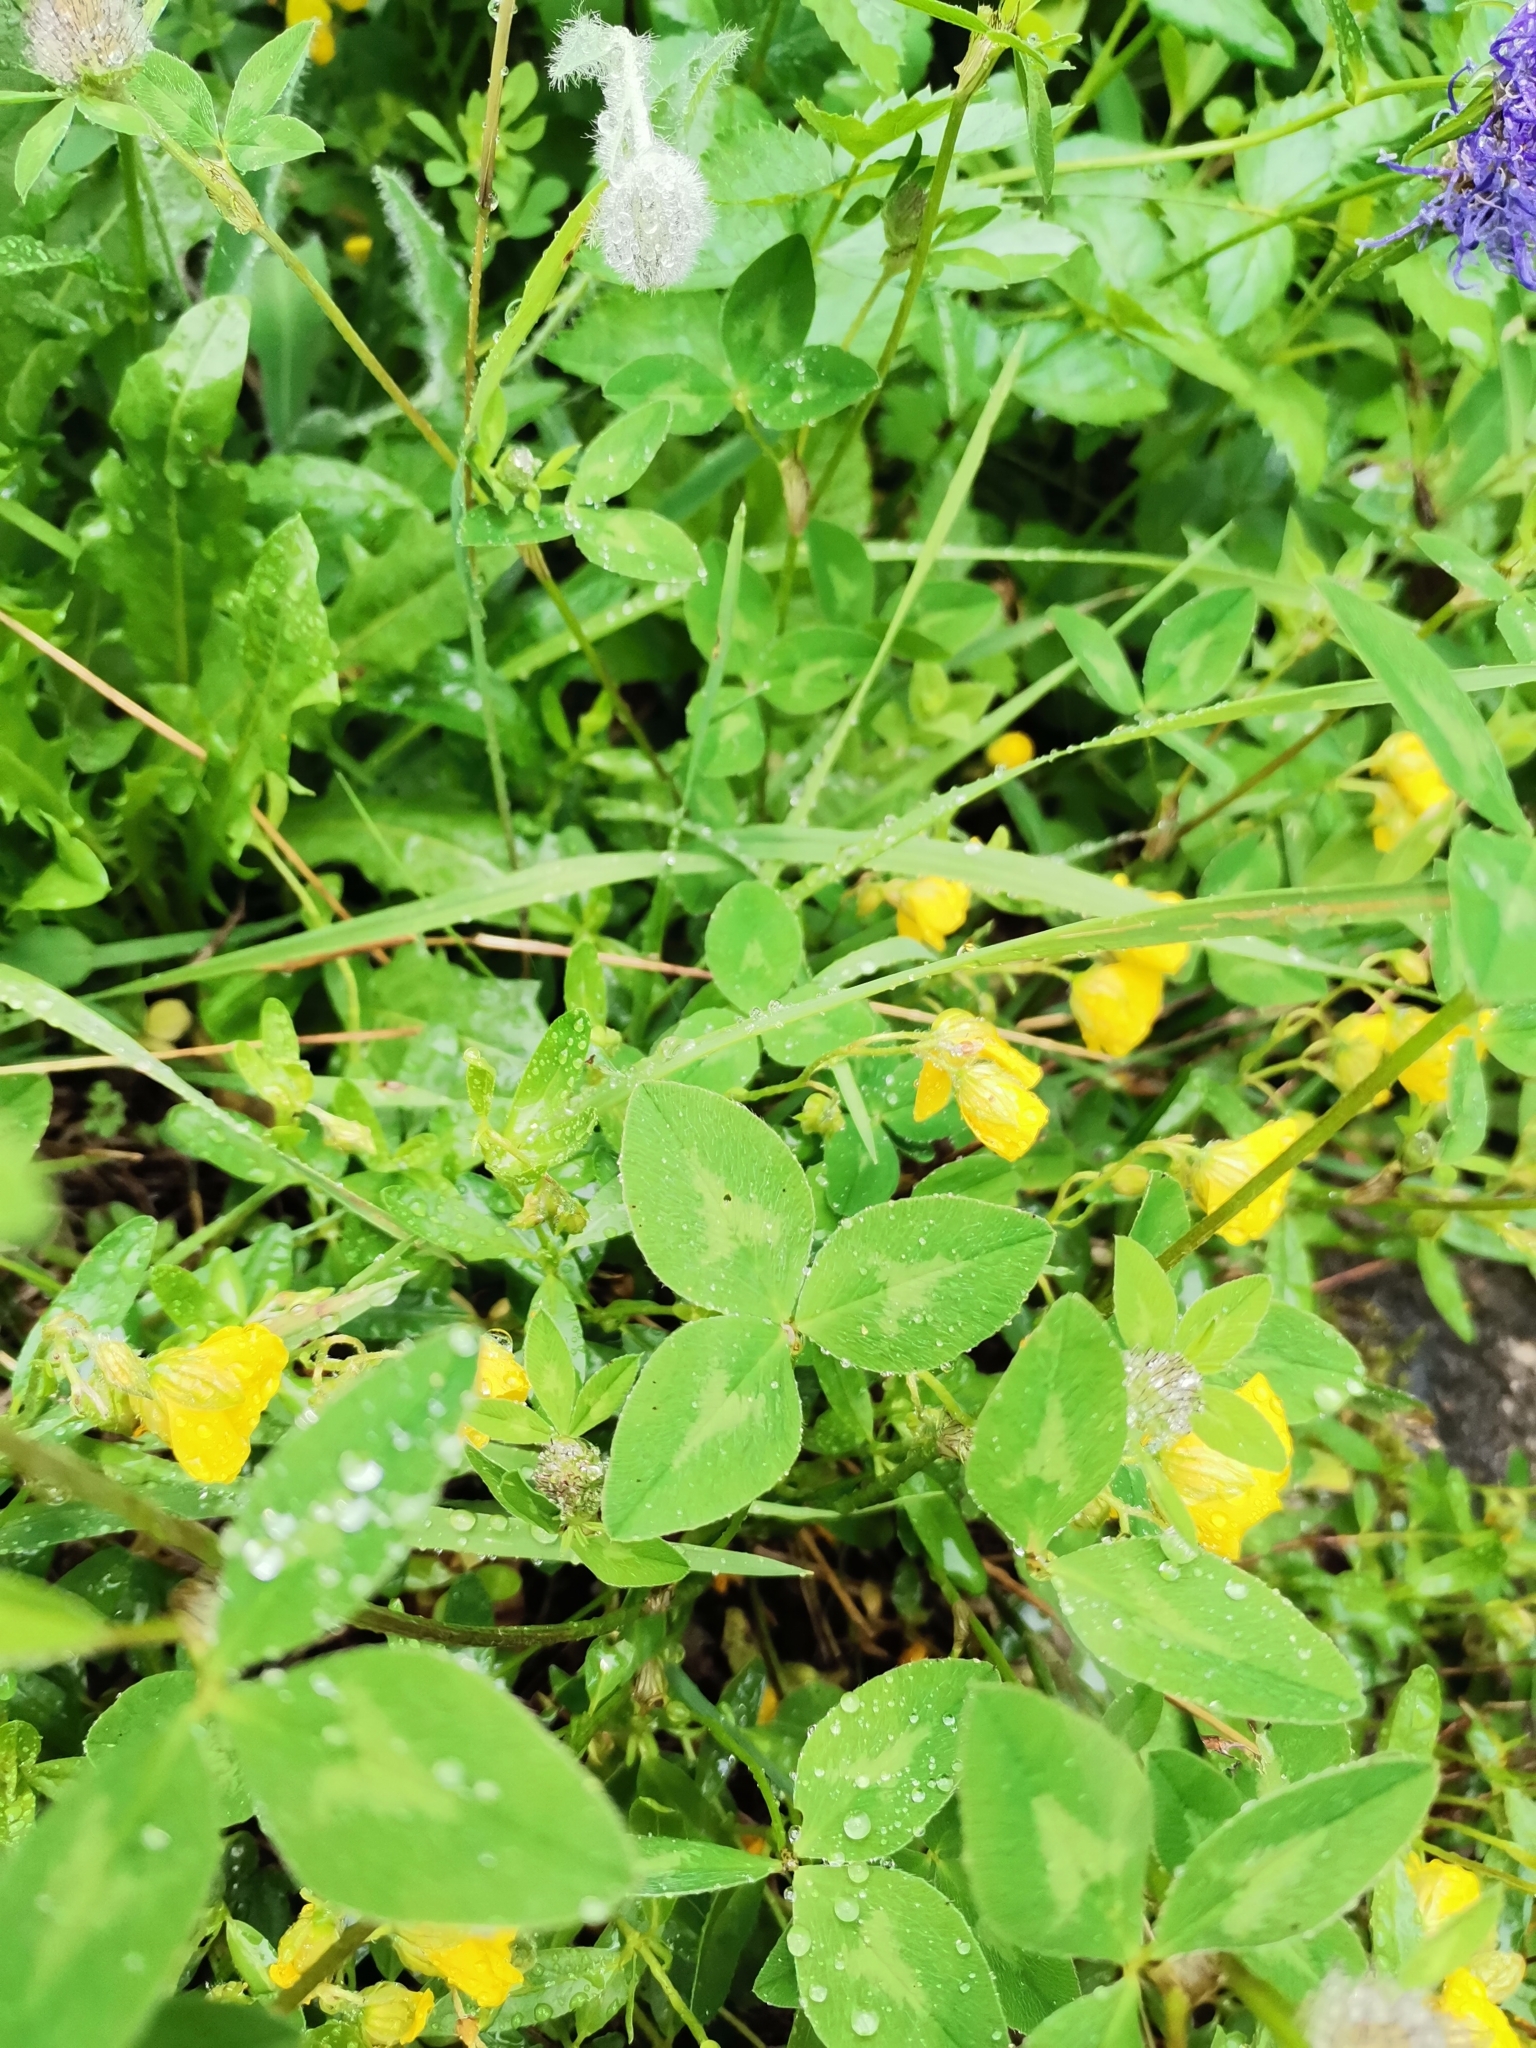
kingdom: Plantae
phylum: Tracheophyta
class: Magnoliopsida
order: Fabales
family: Fabaceae
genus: Trifolium
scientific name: Trifolium pratense
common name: Red clover
